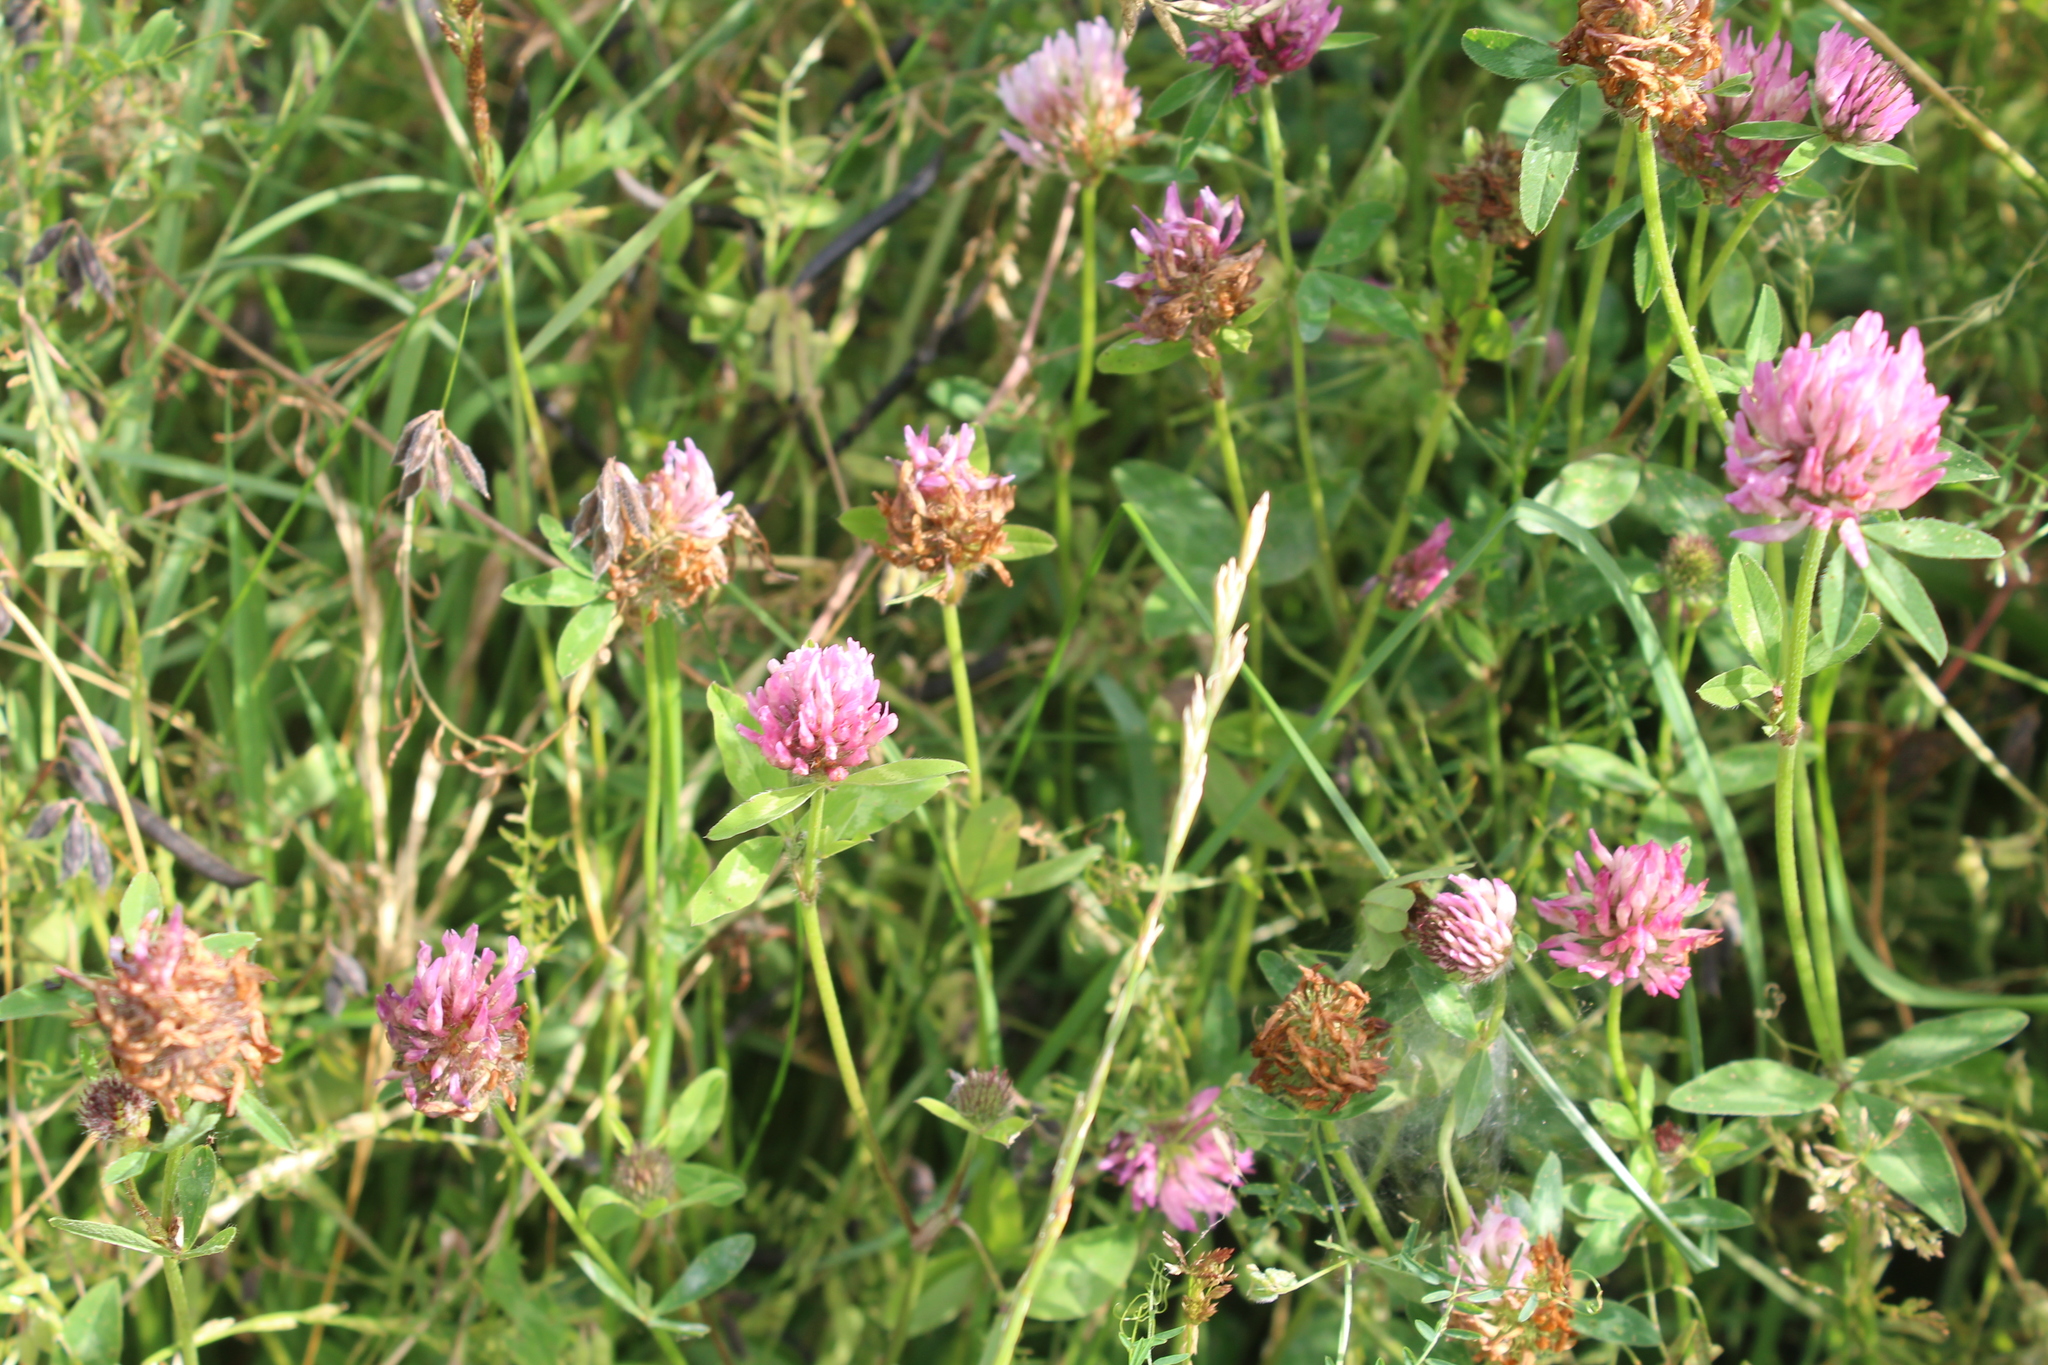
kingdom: Plantae
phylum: Tracheophyta
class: Magnoliopsida
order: Fabales
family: Fabaceae
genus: Trifolium
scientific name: Trifolium pratense
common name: Red clover
